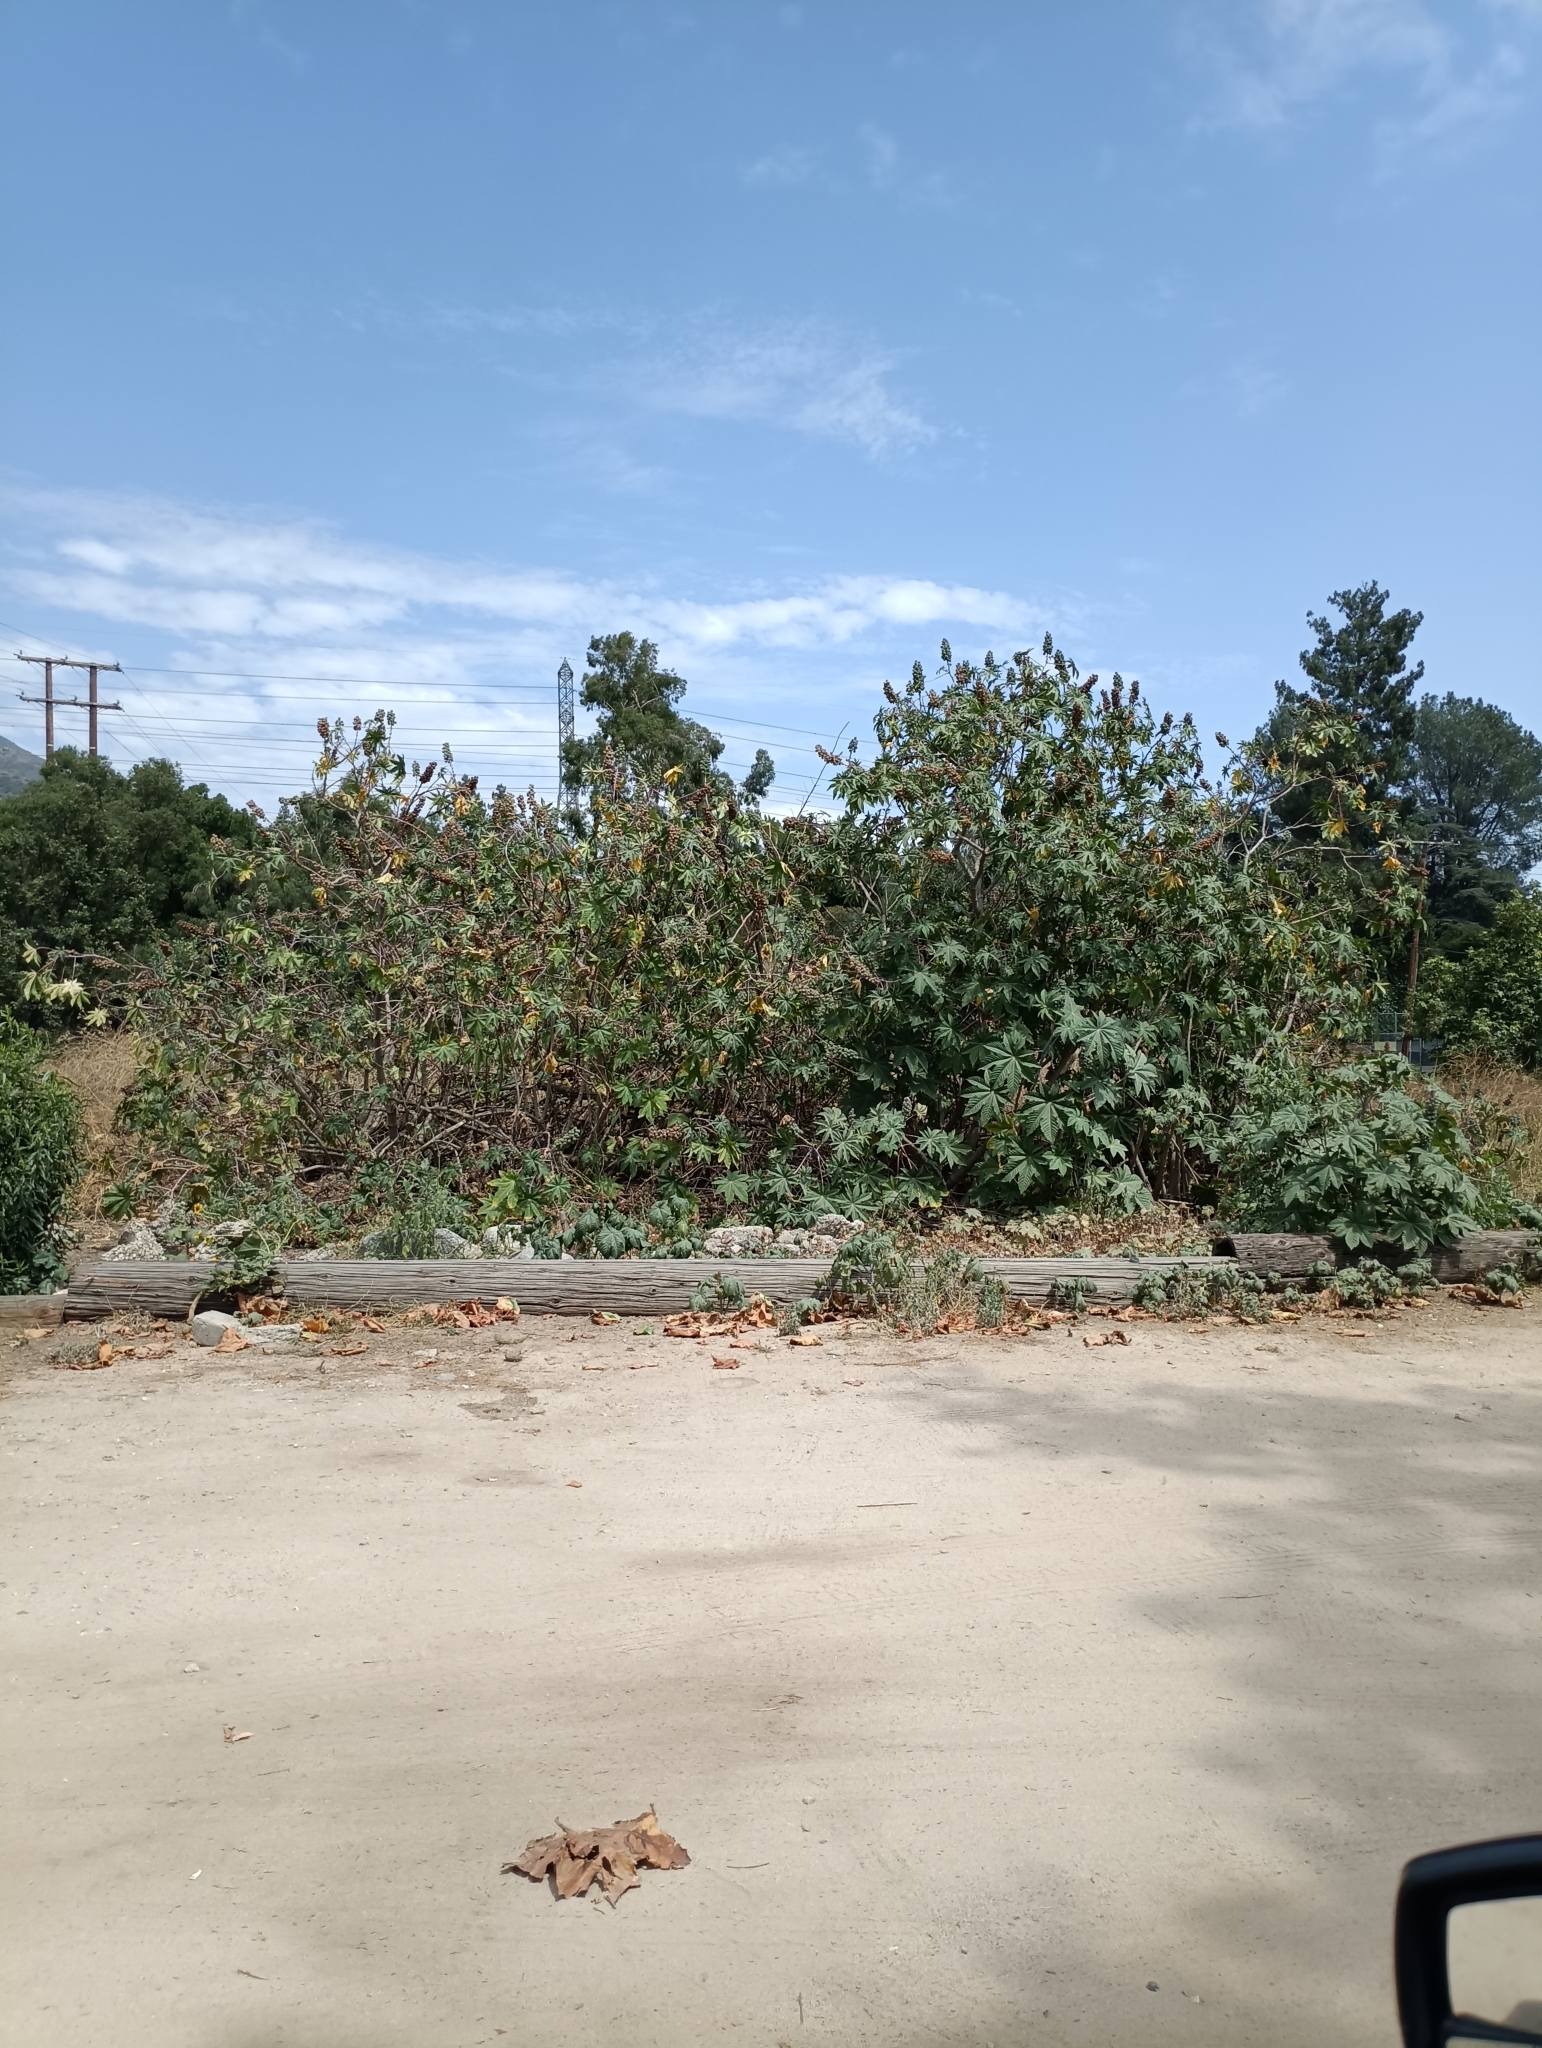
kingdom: Plantae
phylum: Tracheophyta
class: Magnoliopsida
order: Malpighiales
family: Euphorbiaceae
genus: Ricinus
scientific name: Ricinus communis
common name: Castor-oil-plant
